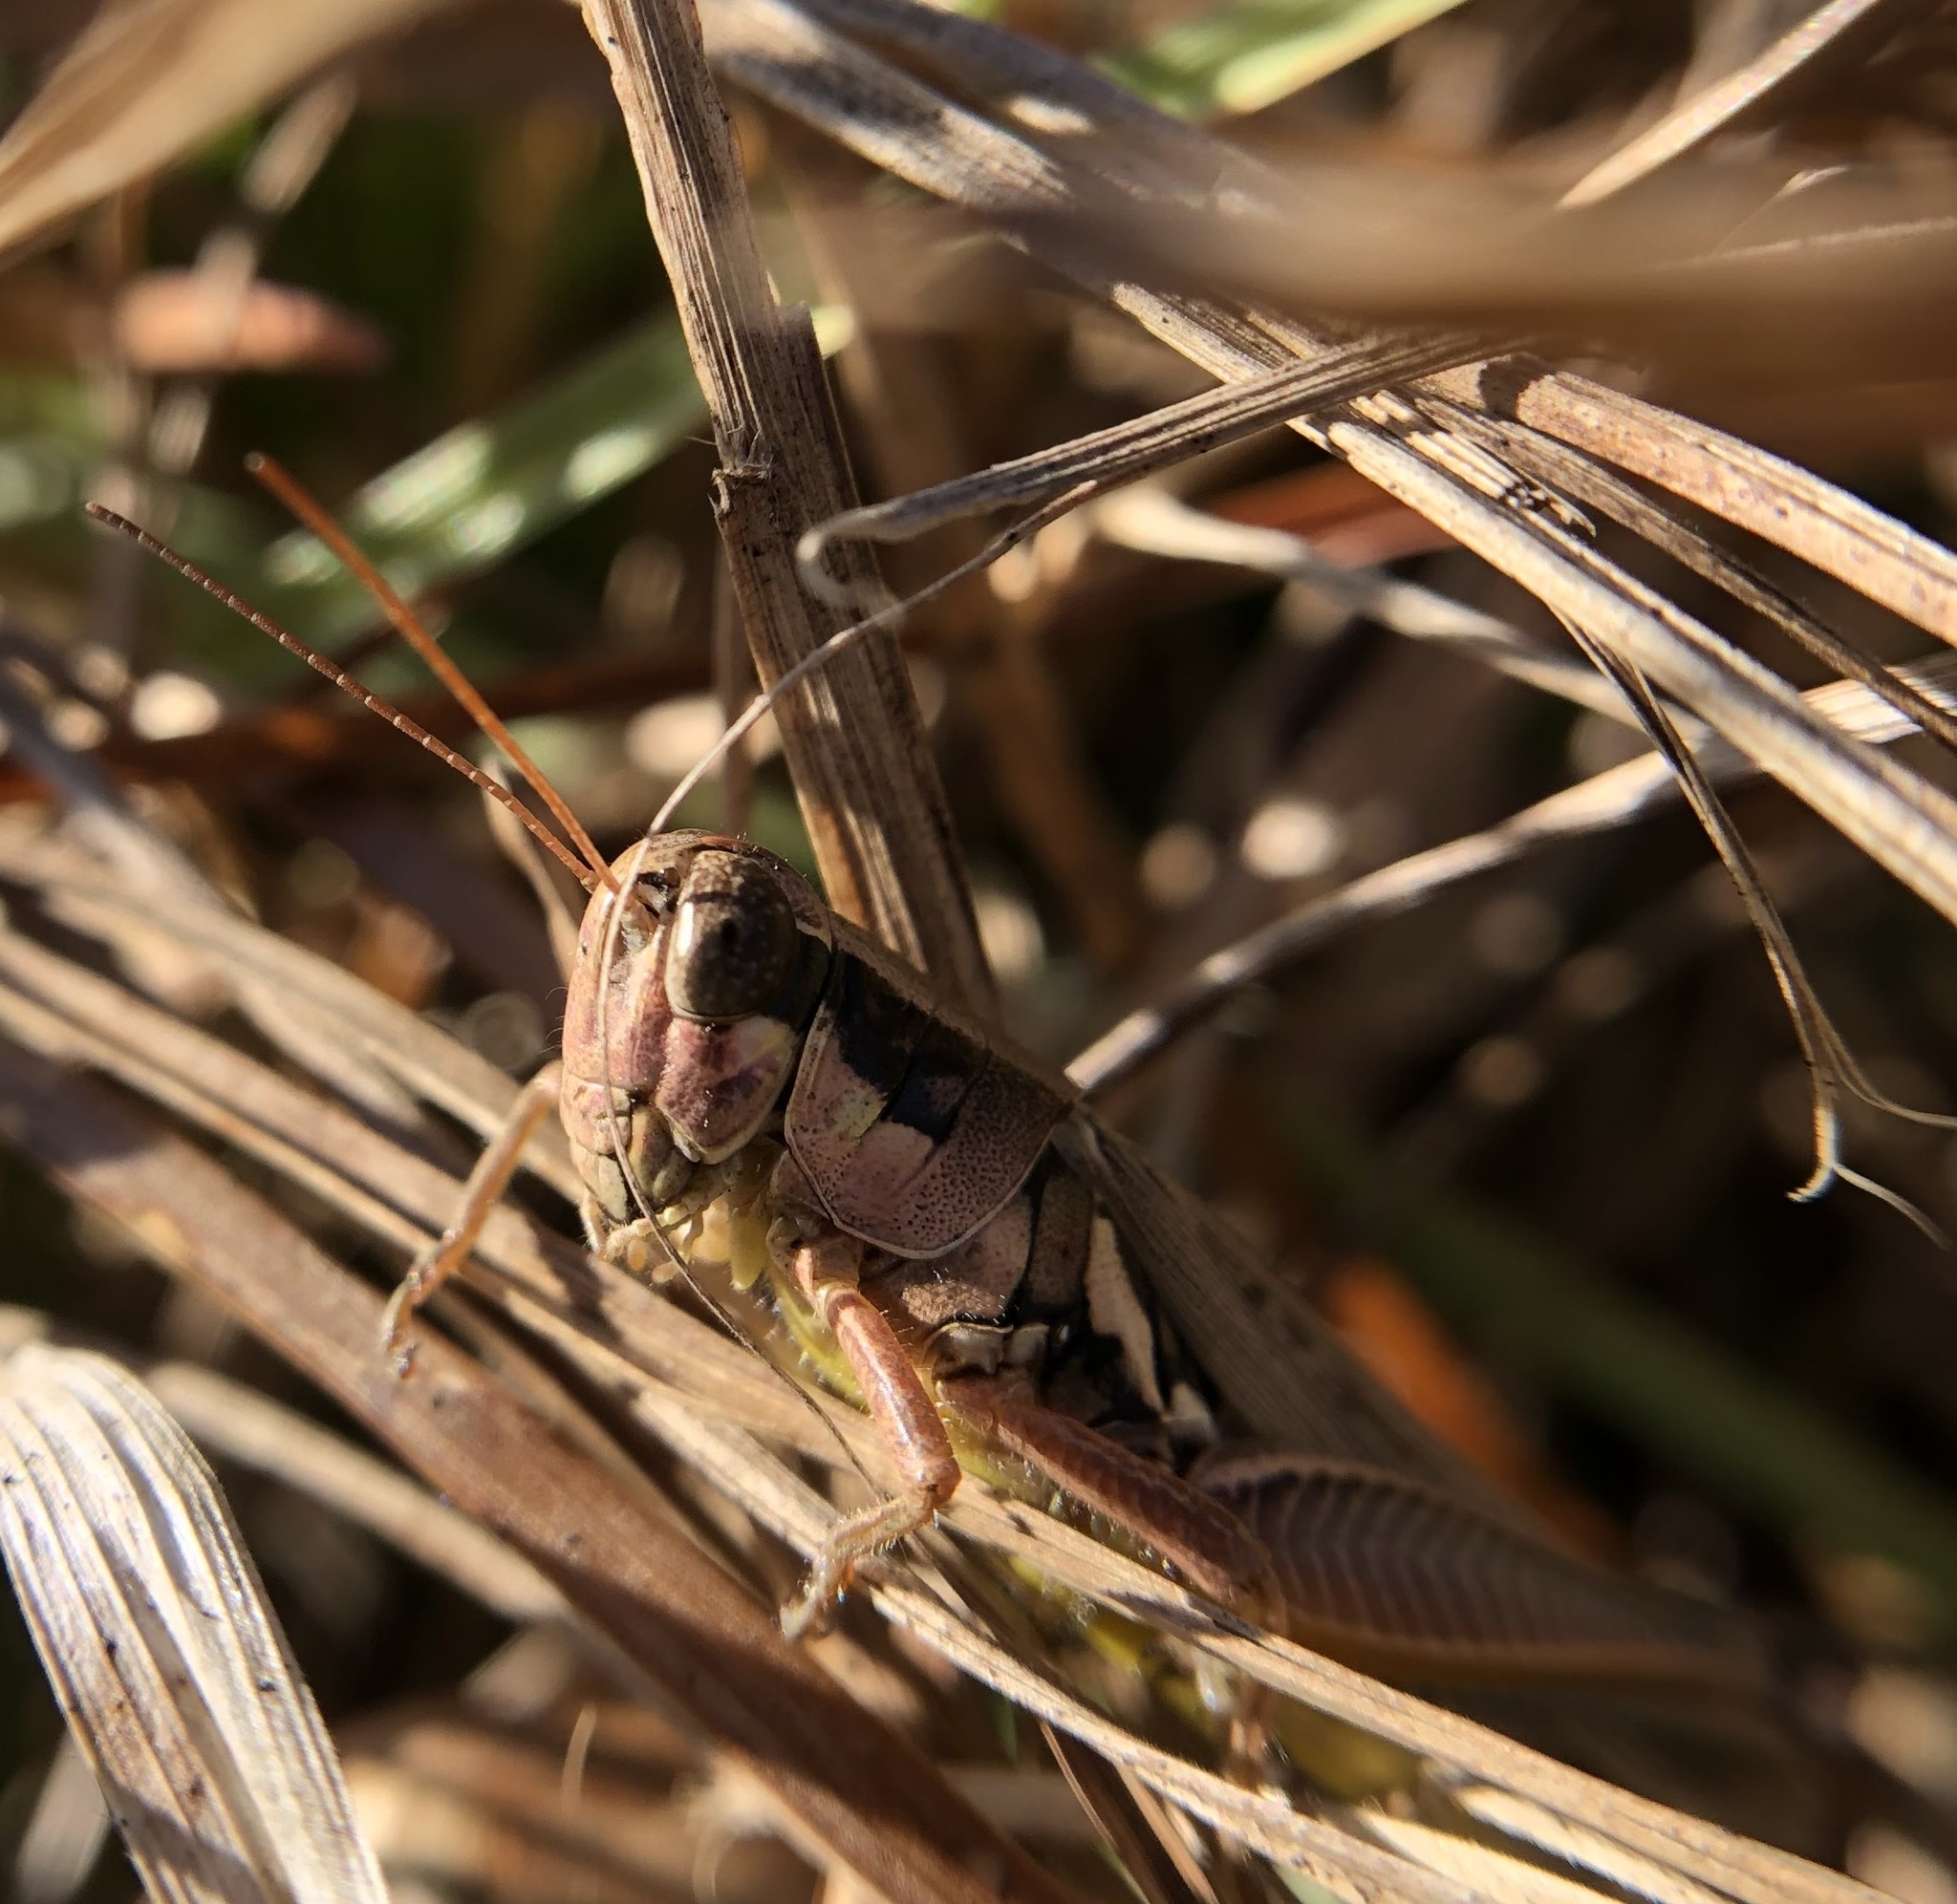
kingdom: Animalia
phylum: Arthropoda
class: Insecta
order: Orthoptera
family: Acrididae
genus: Paroxya
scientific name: Paroxya atlantica
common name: Atlantic grasshopper
